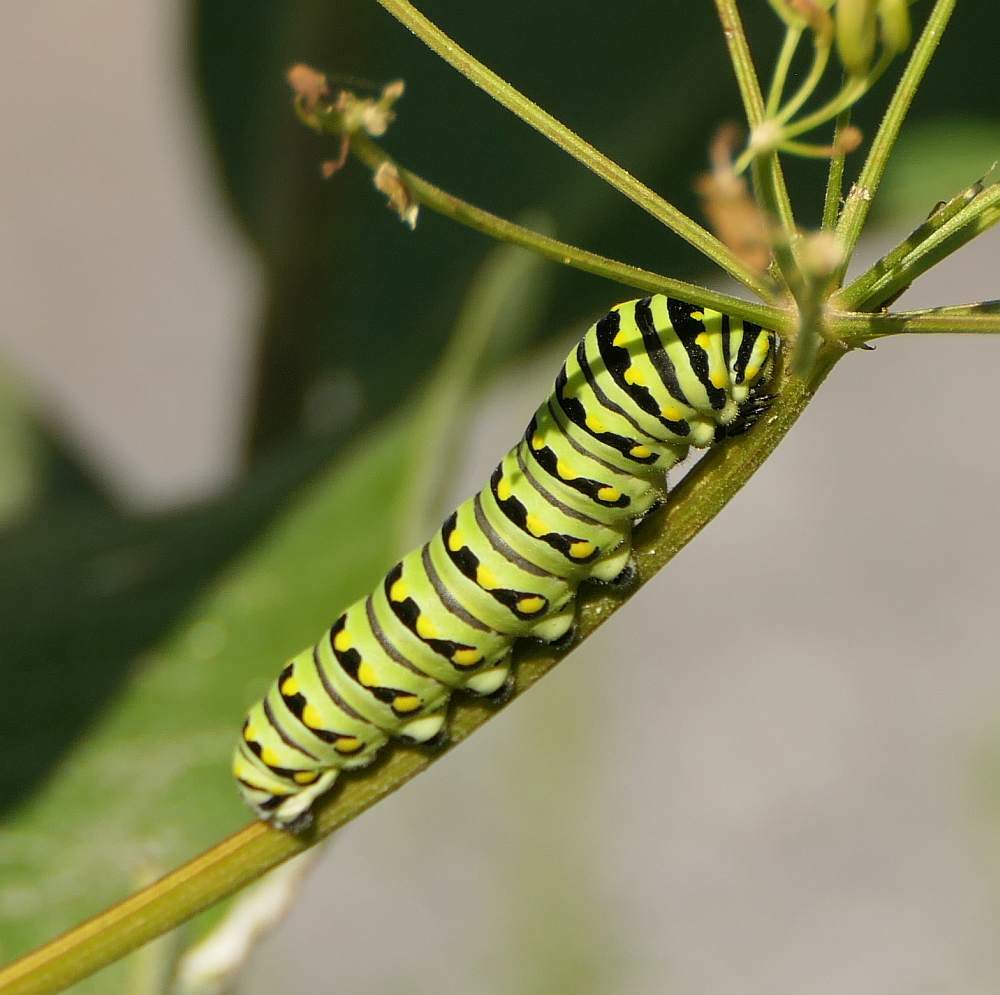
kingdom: Animalia
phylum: Arthropoda
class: Insecta
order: Lepidoptera
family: Papilionidae
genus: Papilio
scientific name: Papilio polyxenes
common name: Black swallowtail
